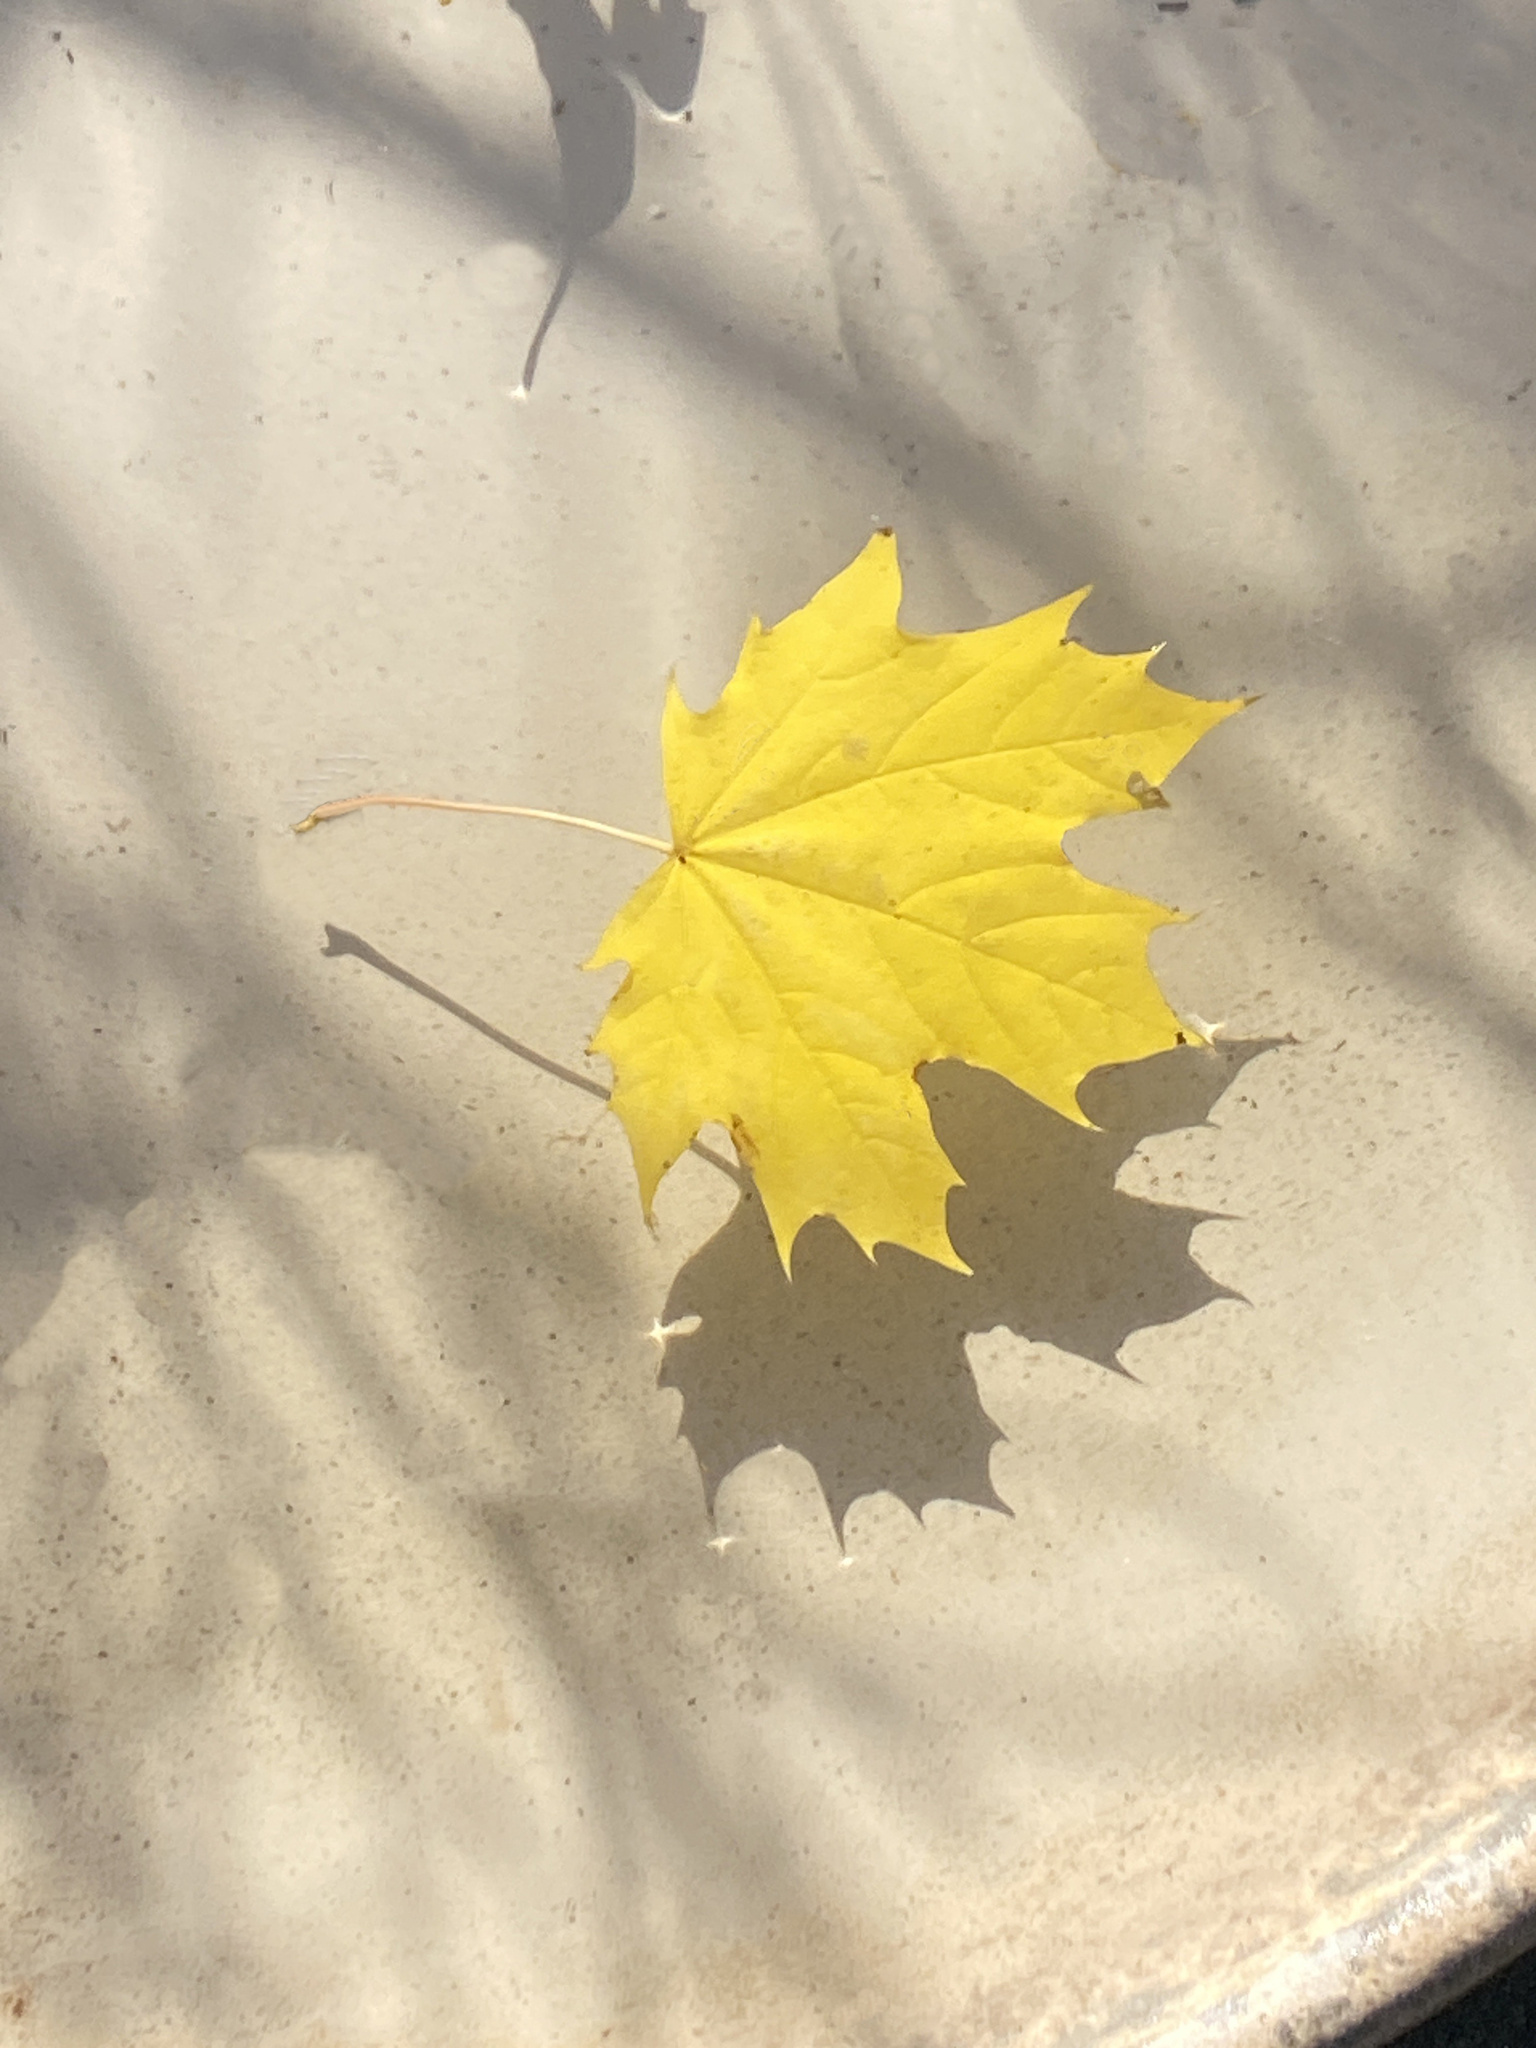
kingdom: Plantae
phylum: Tracheophyta
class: Magnoliopsida
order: Sapindales
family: Sapindaceae
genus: Acer
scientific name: Acer platanoides
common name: Norway maple
